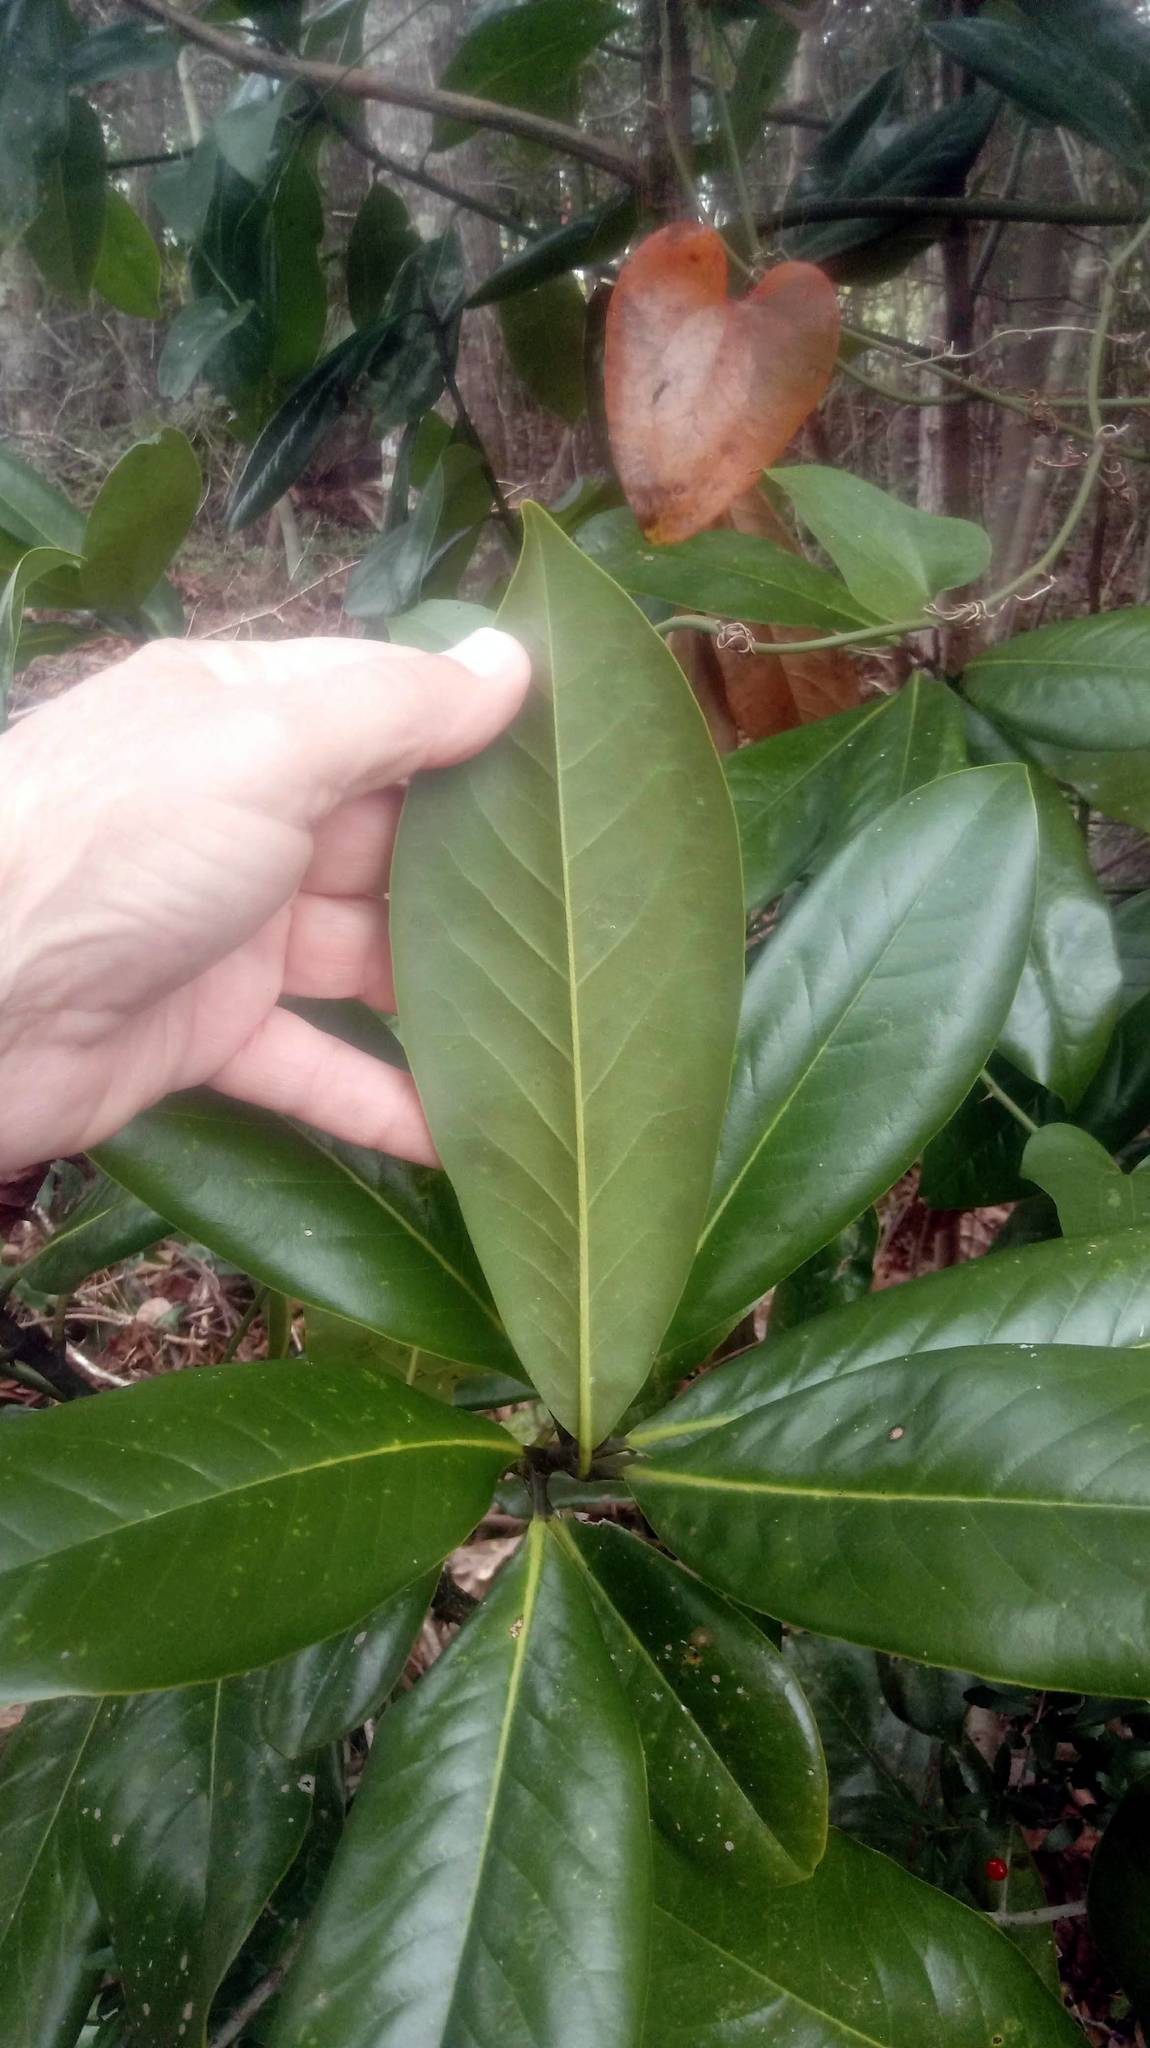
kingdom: Plantae
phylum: Tracheophyta
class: Magnoliopsida
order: Magnoliales
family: Magnoliaceae
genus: Magnolia
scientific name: Magnolia grandiflora
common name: Southern magnolia
